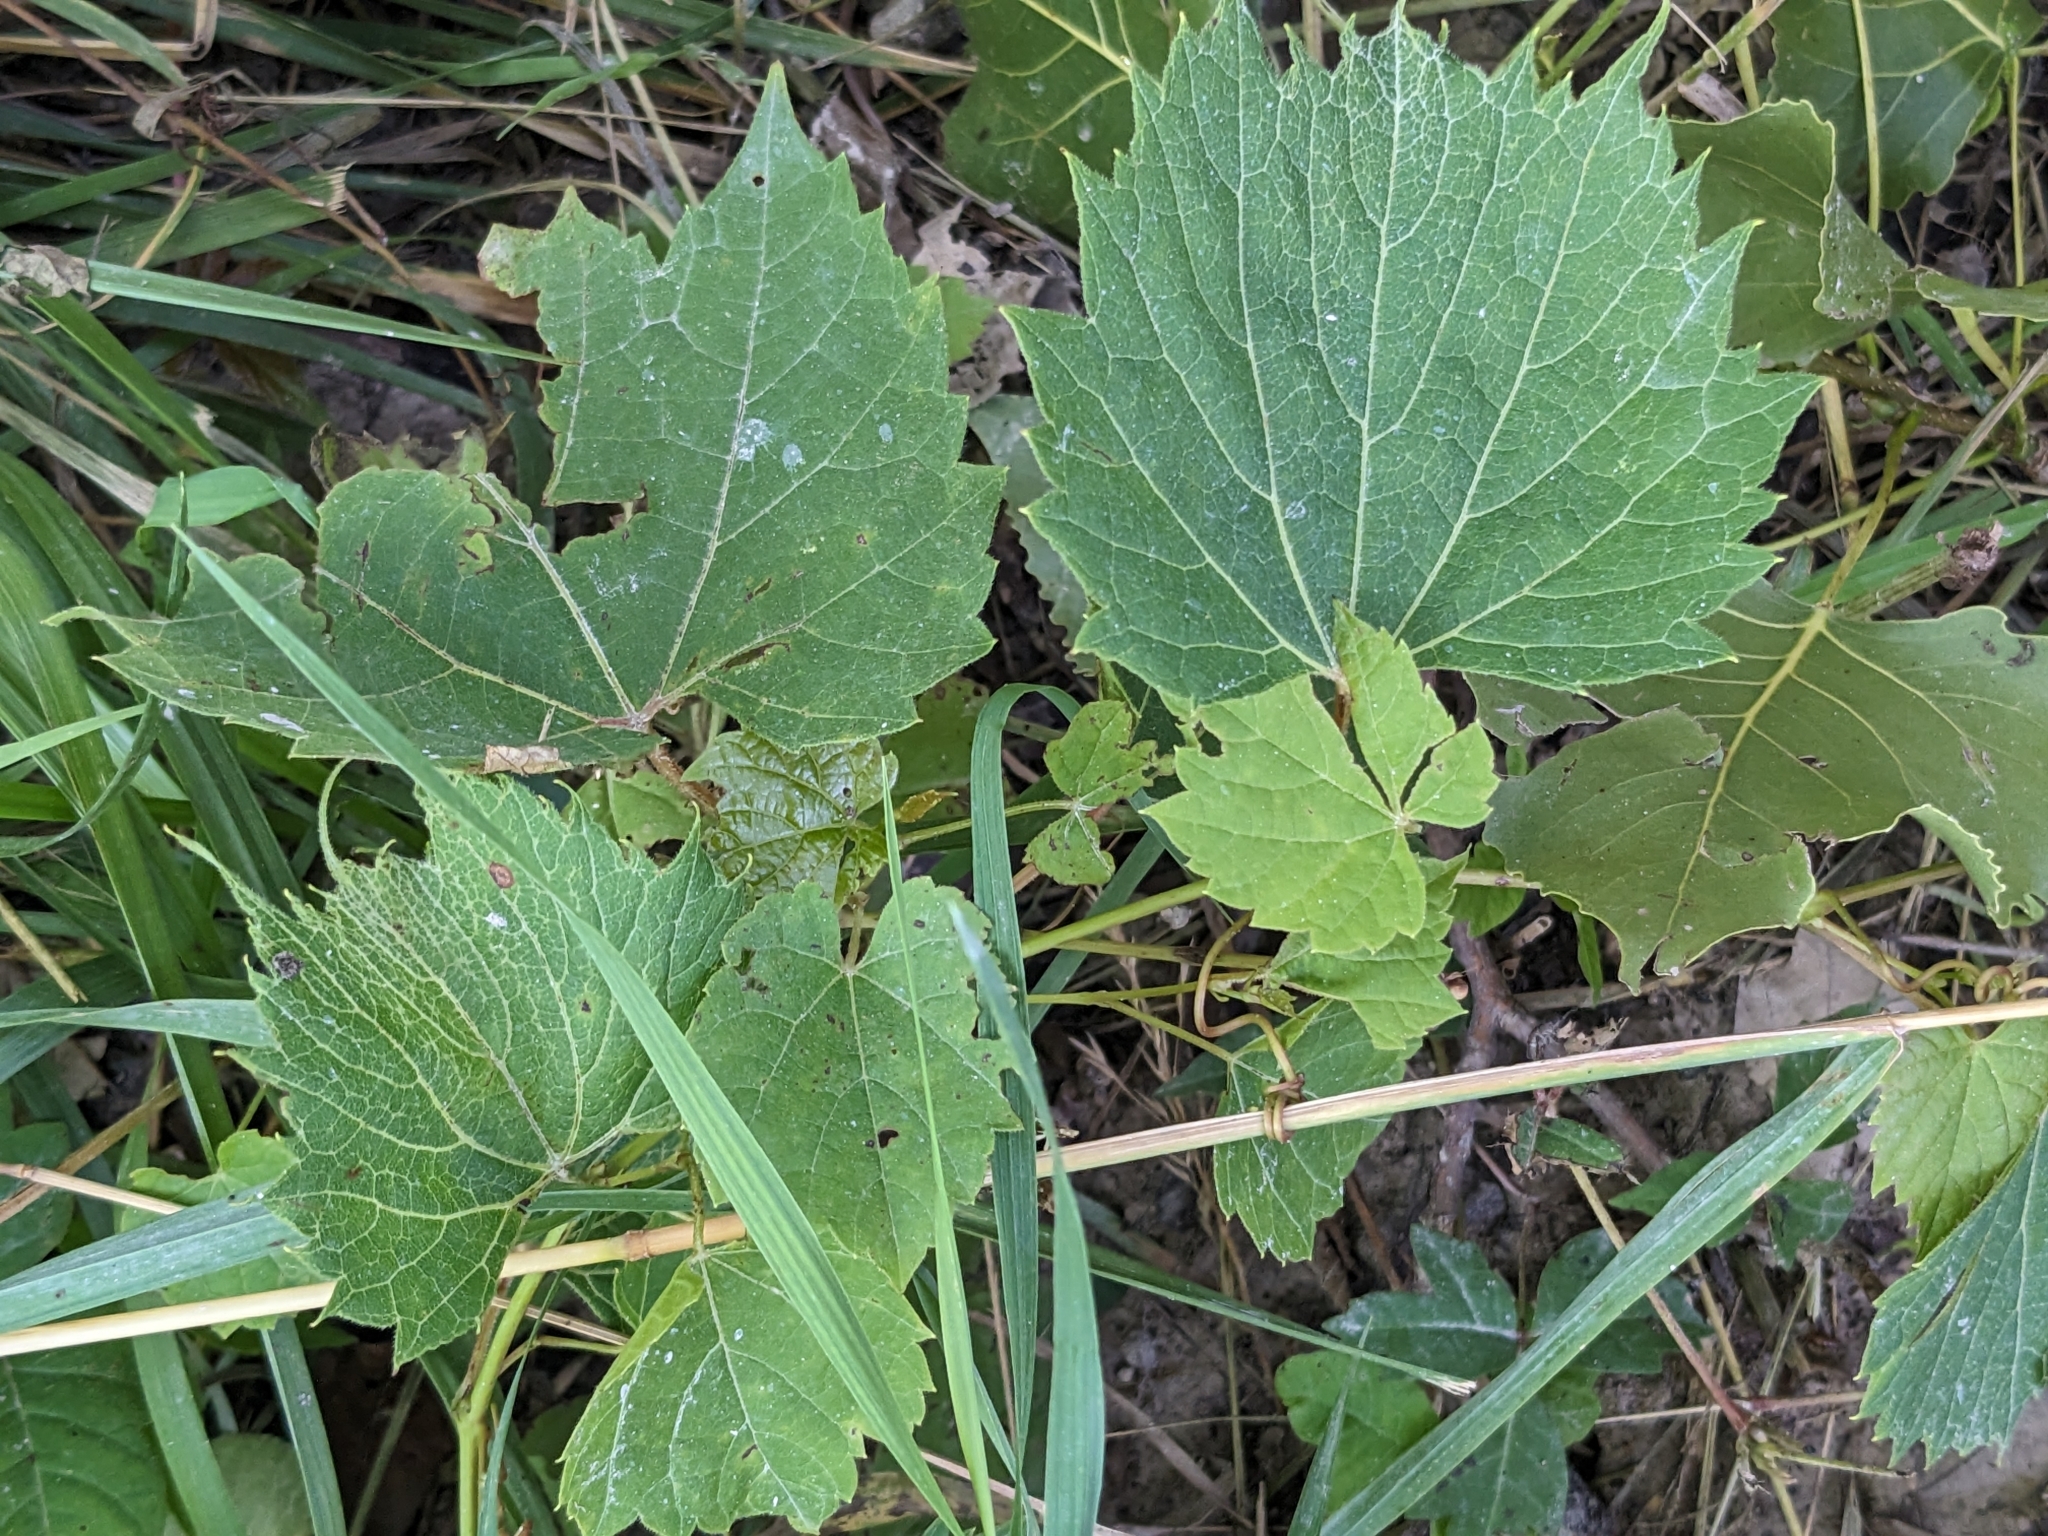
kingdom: Plantae
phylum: Tracheophyta
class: Magnoliopsida
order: Vitales
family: Vitaceae
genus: Vitis
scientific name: Vitis riparia
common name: Frost grape
